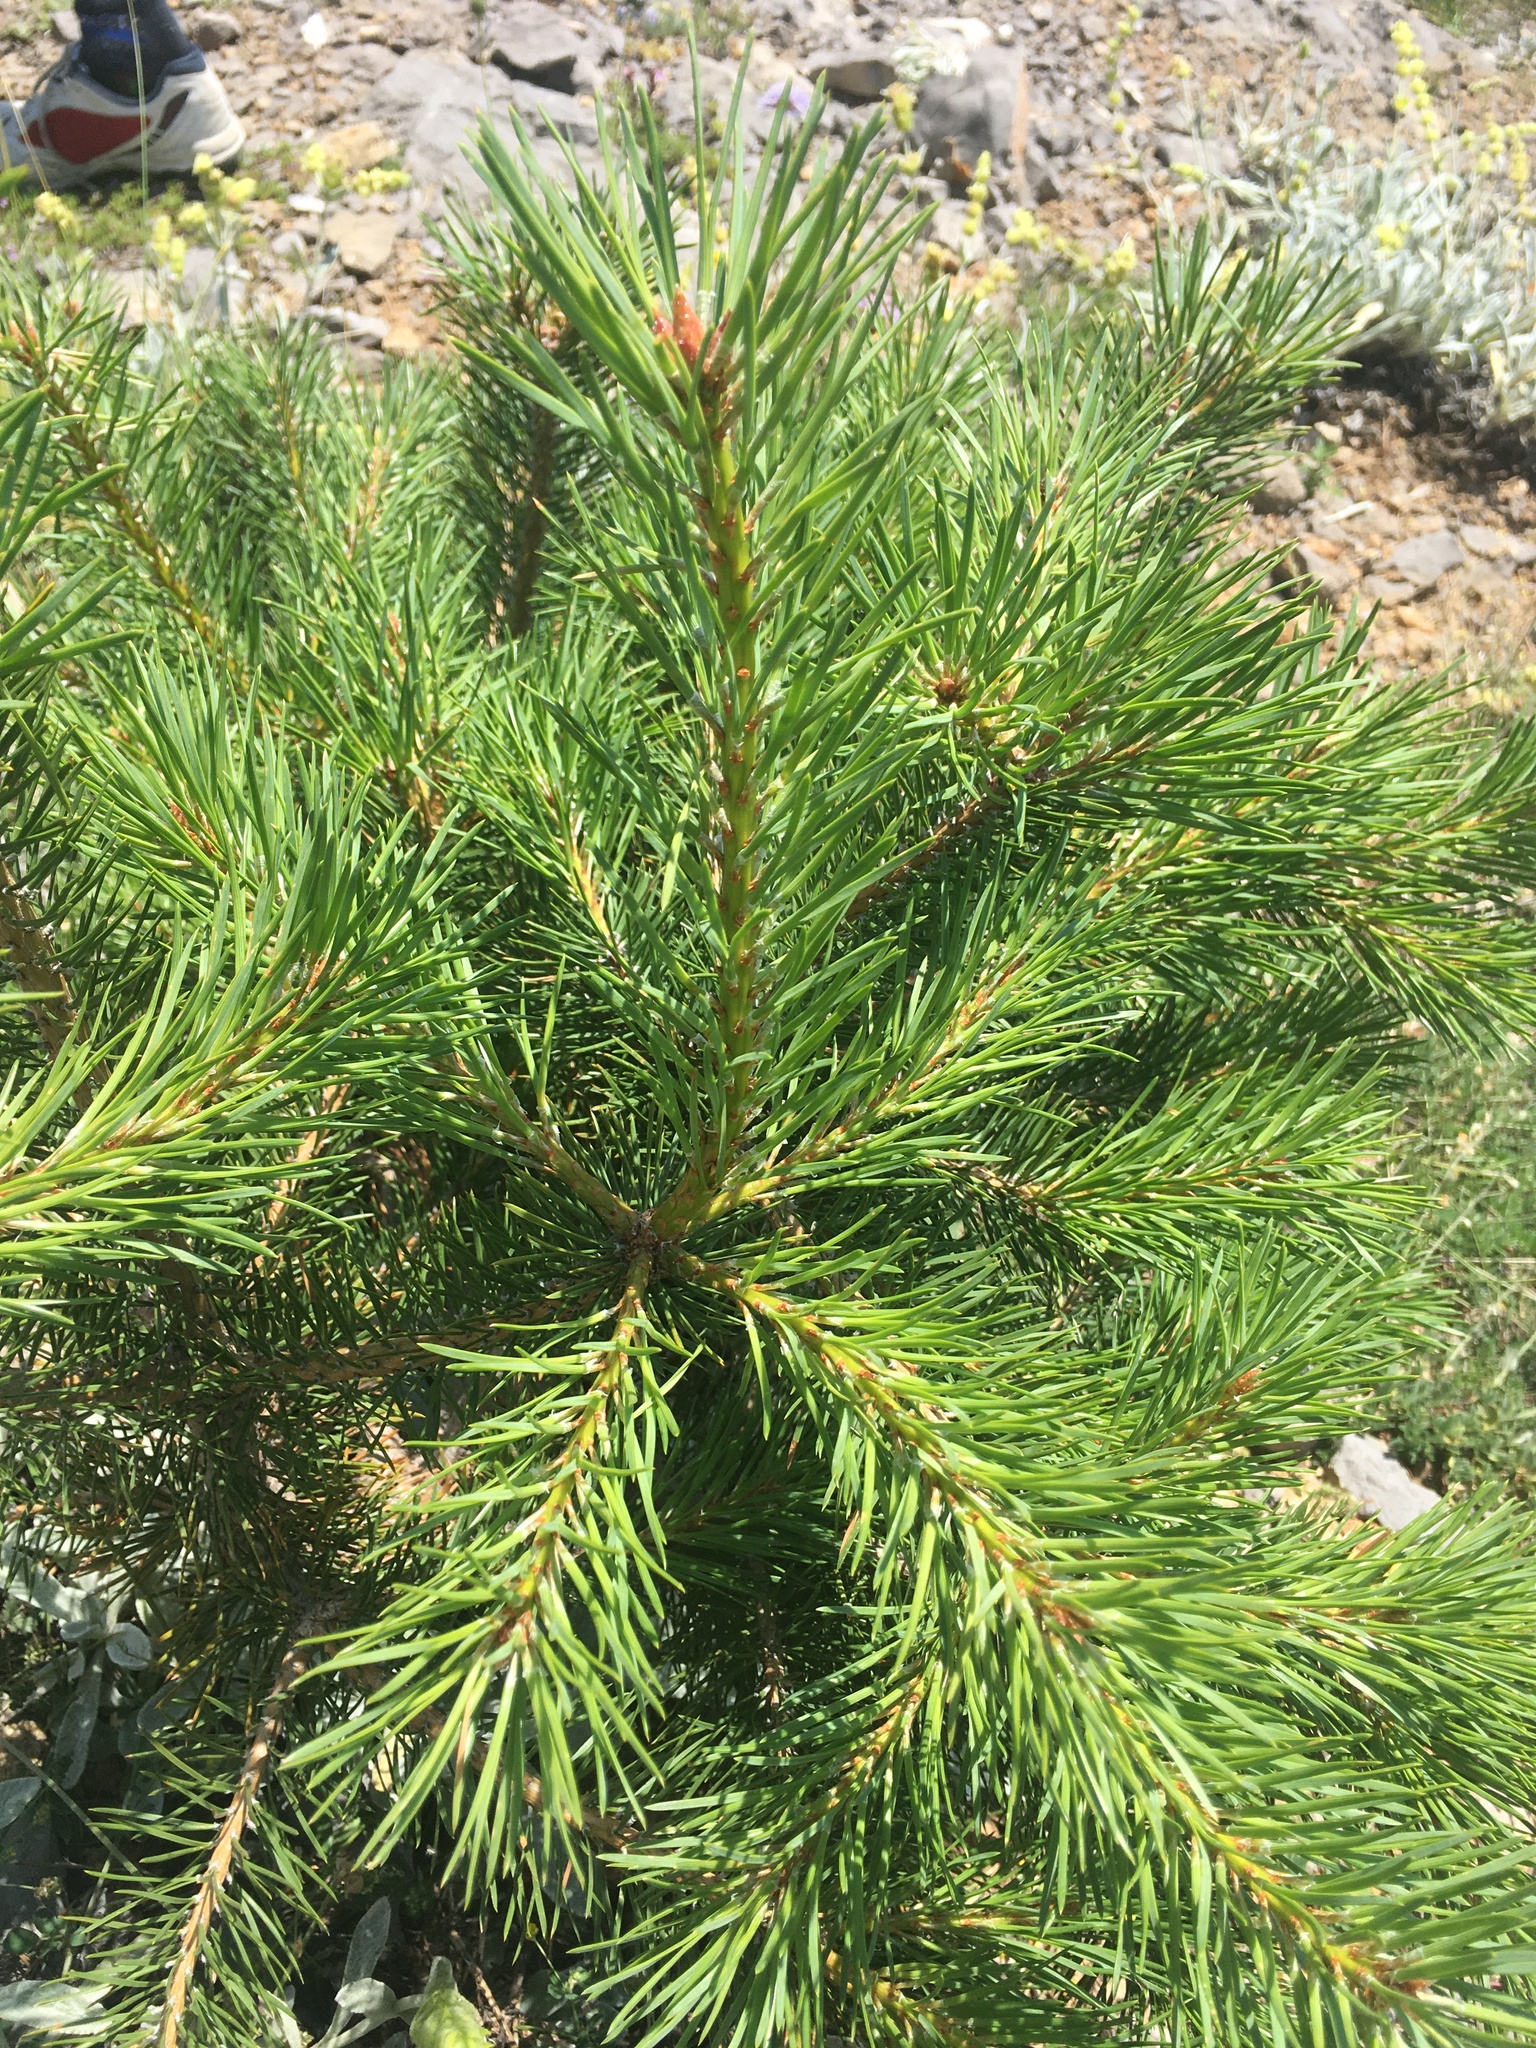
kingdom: Plantae
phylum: Tracheophyta
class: Pinopsida
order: Pinales
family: Pinaceae
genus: Pinus
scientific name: Pinus nigra
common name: Austrian pine
